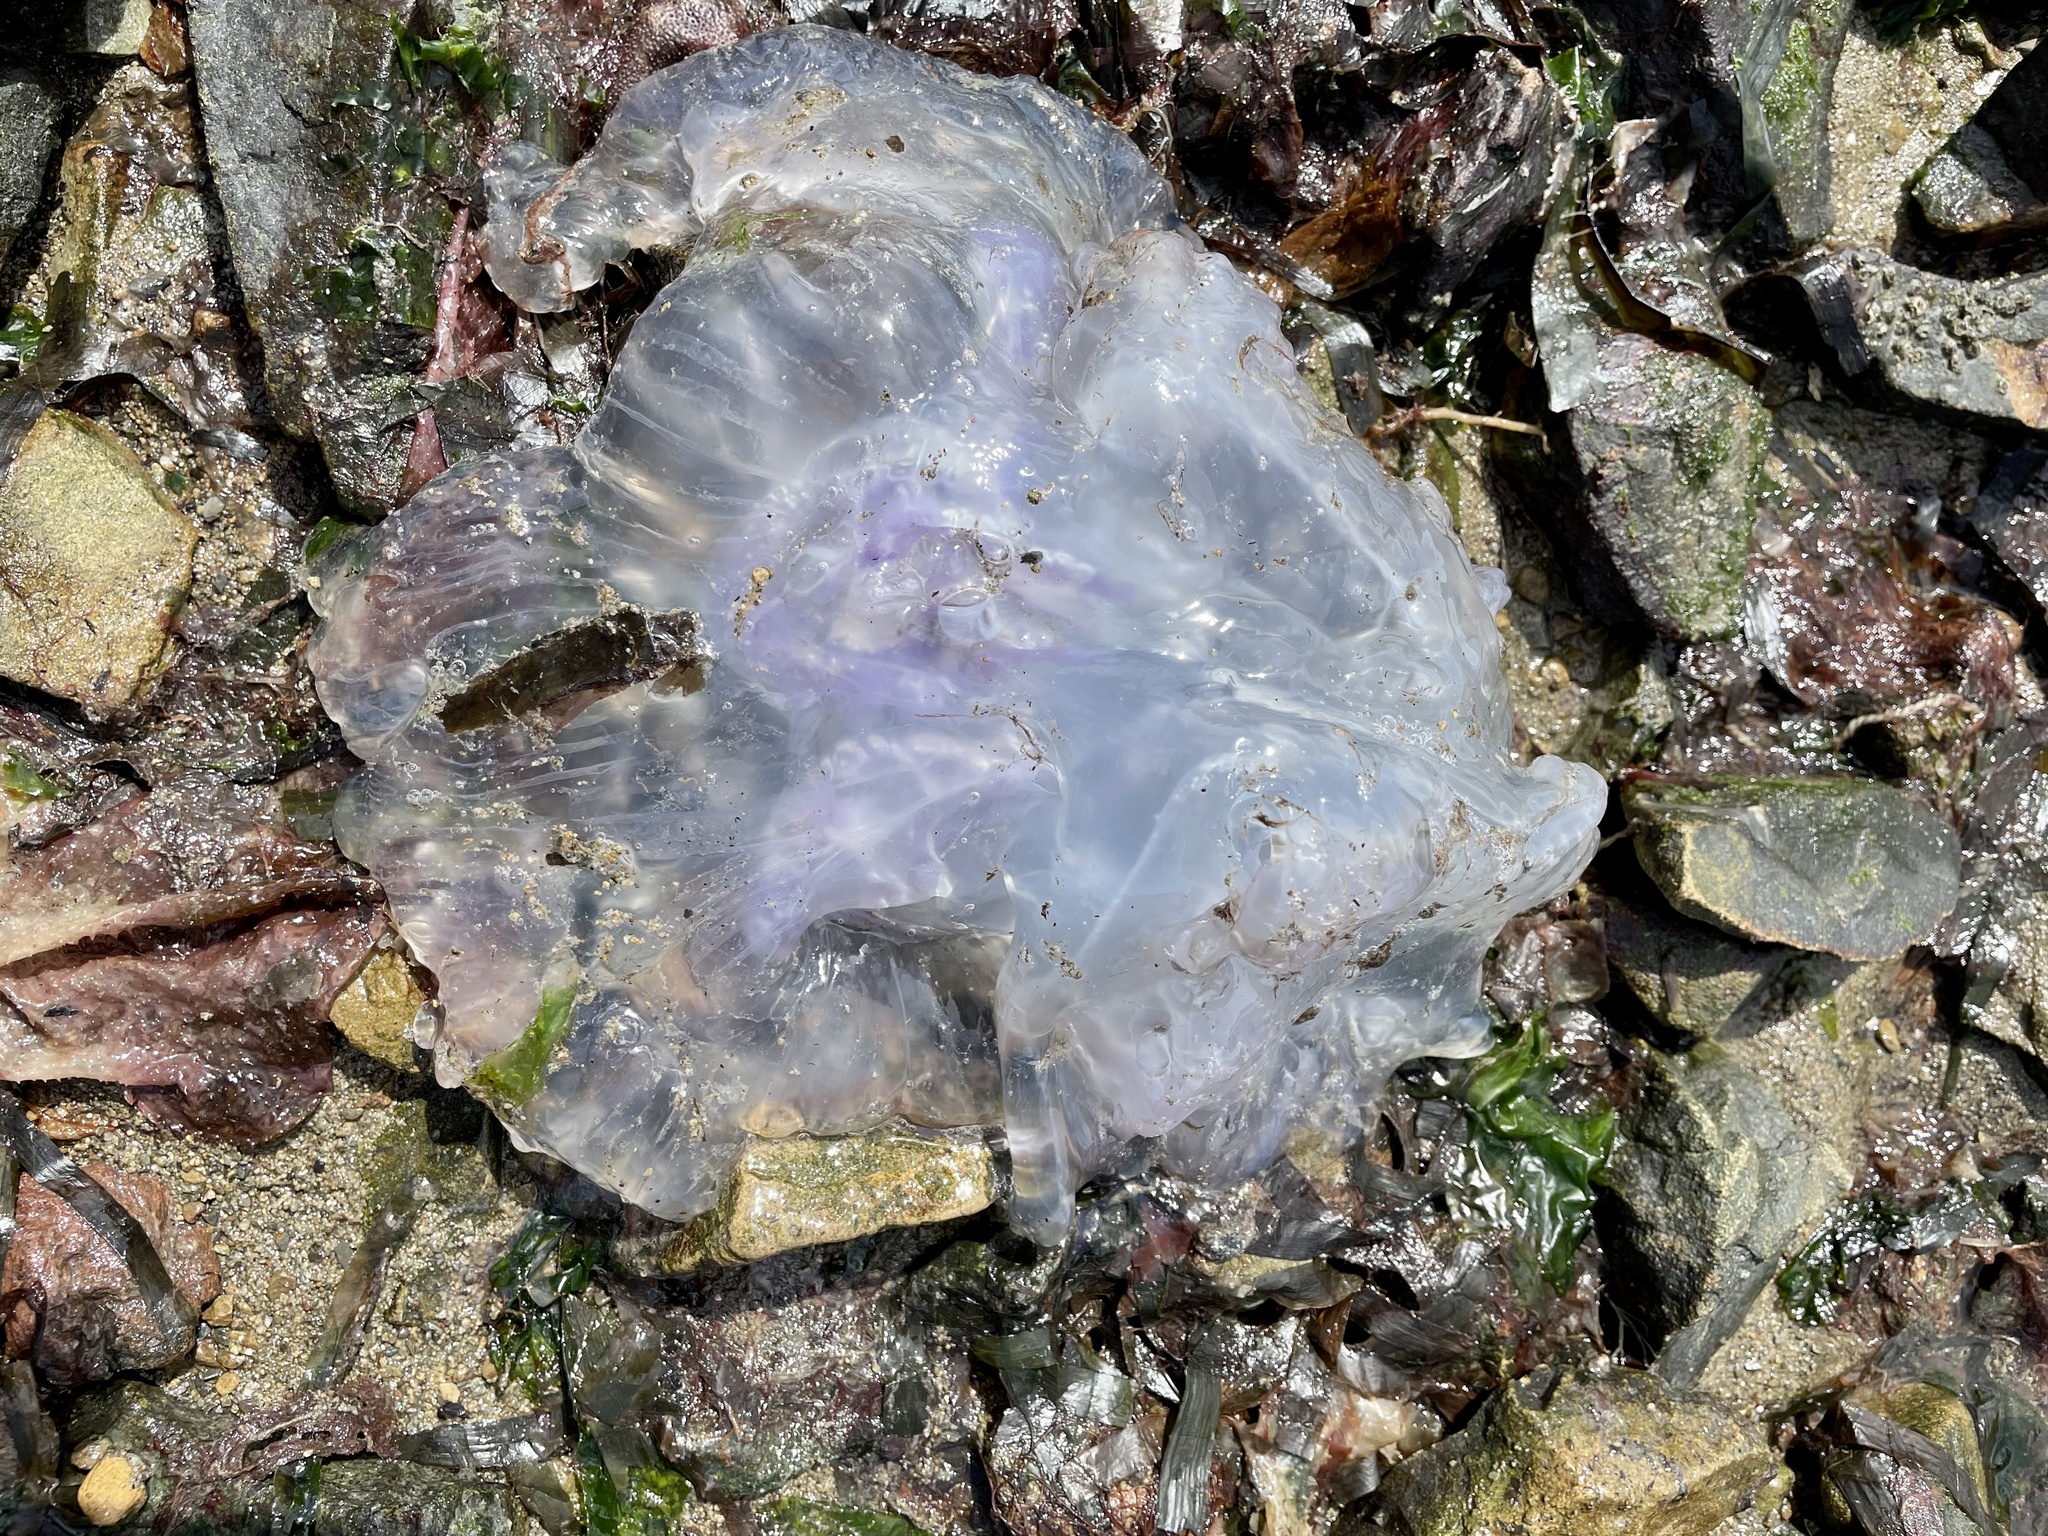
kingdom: Animalia
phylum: Cnidaria
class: Scyphozoa
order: Semaeostomeae
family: Ulmaridae
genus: Aurelia
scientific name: Aurelia labiata
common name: Pacific moon jelly
